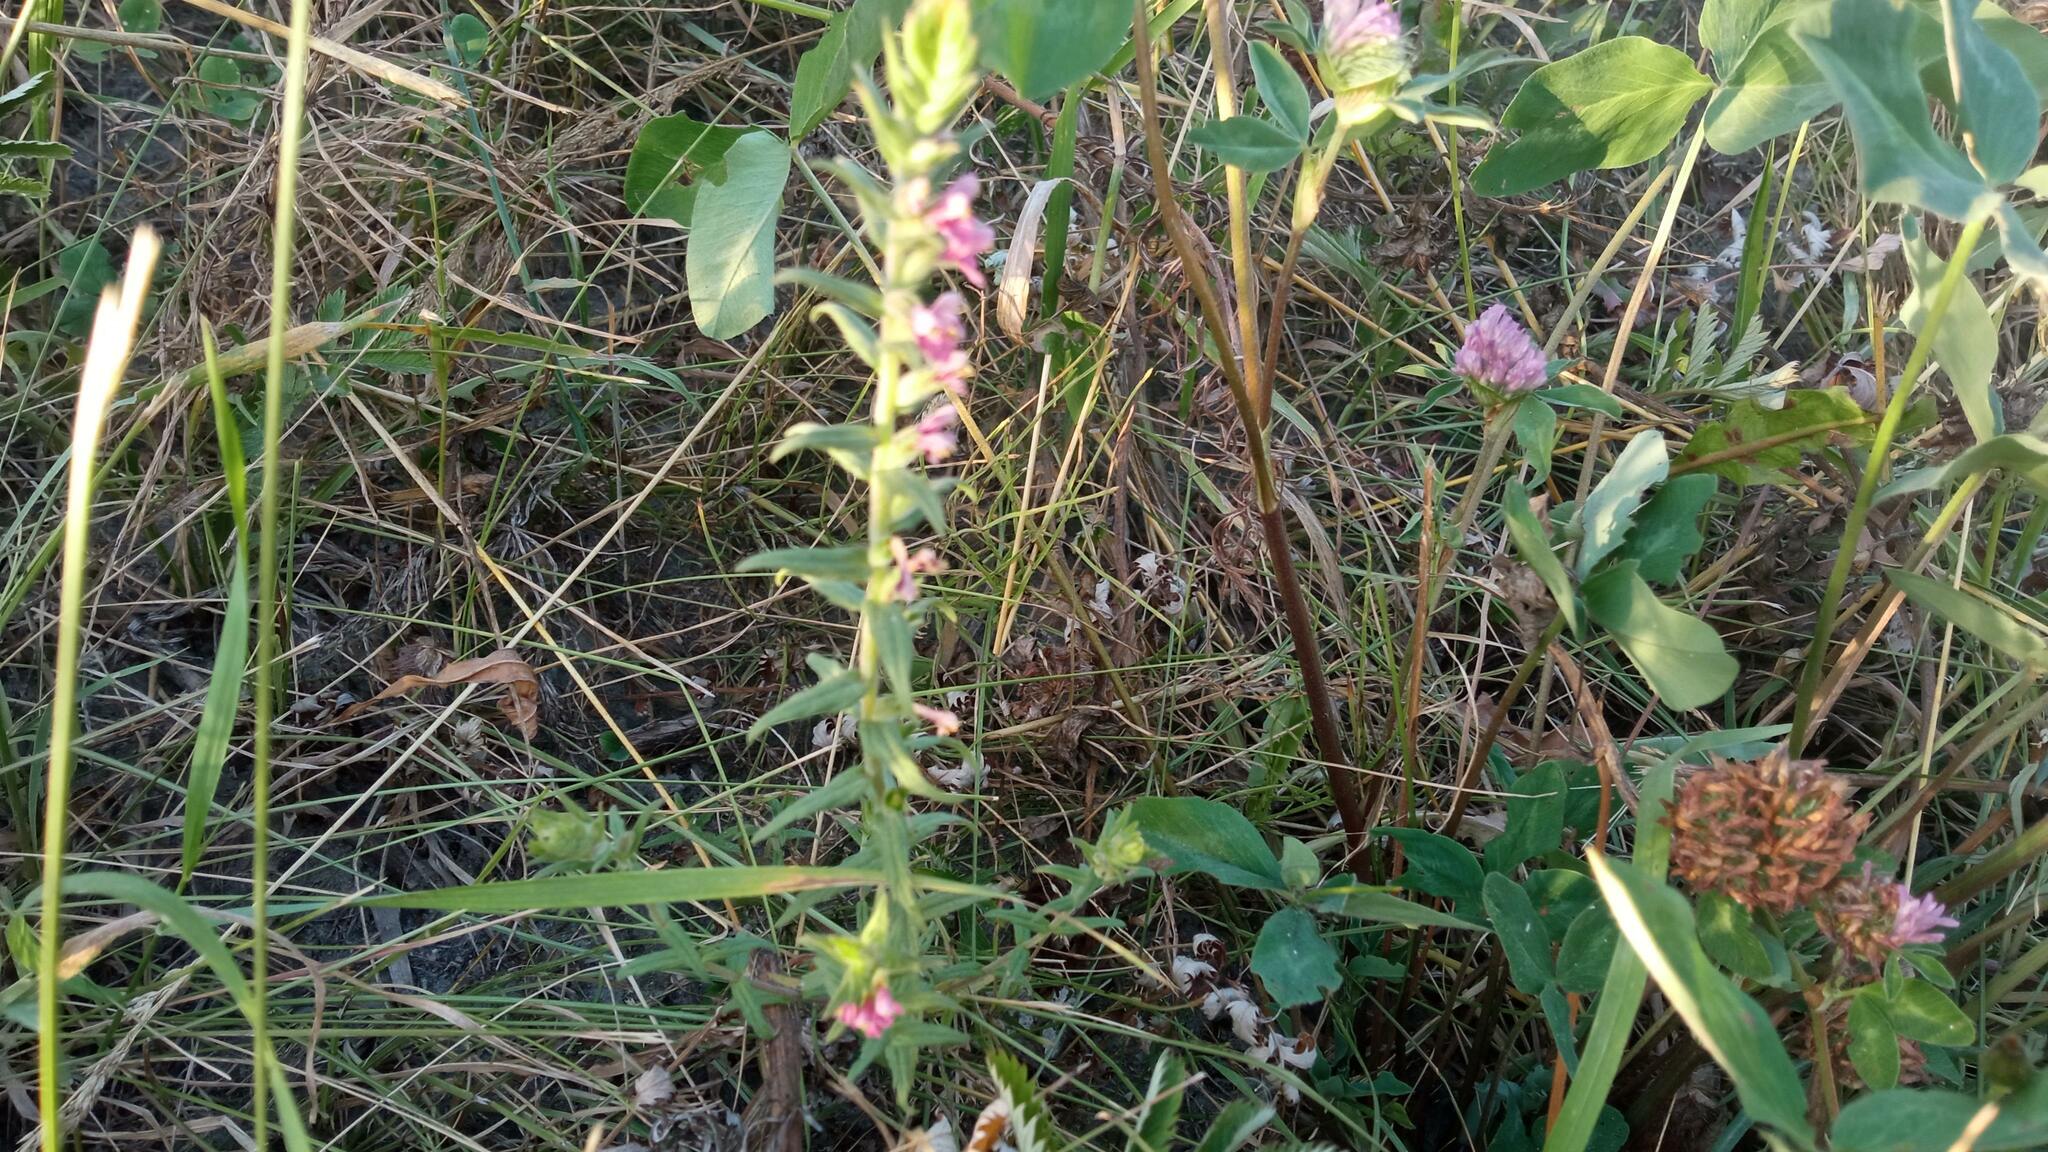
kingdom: Plantae
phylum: Tracheophyta
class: Magnoliopsida
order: Lamiales
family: Orobanchaceae
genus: Odontites
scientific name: Odontites vulgaris
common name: Broomrape
